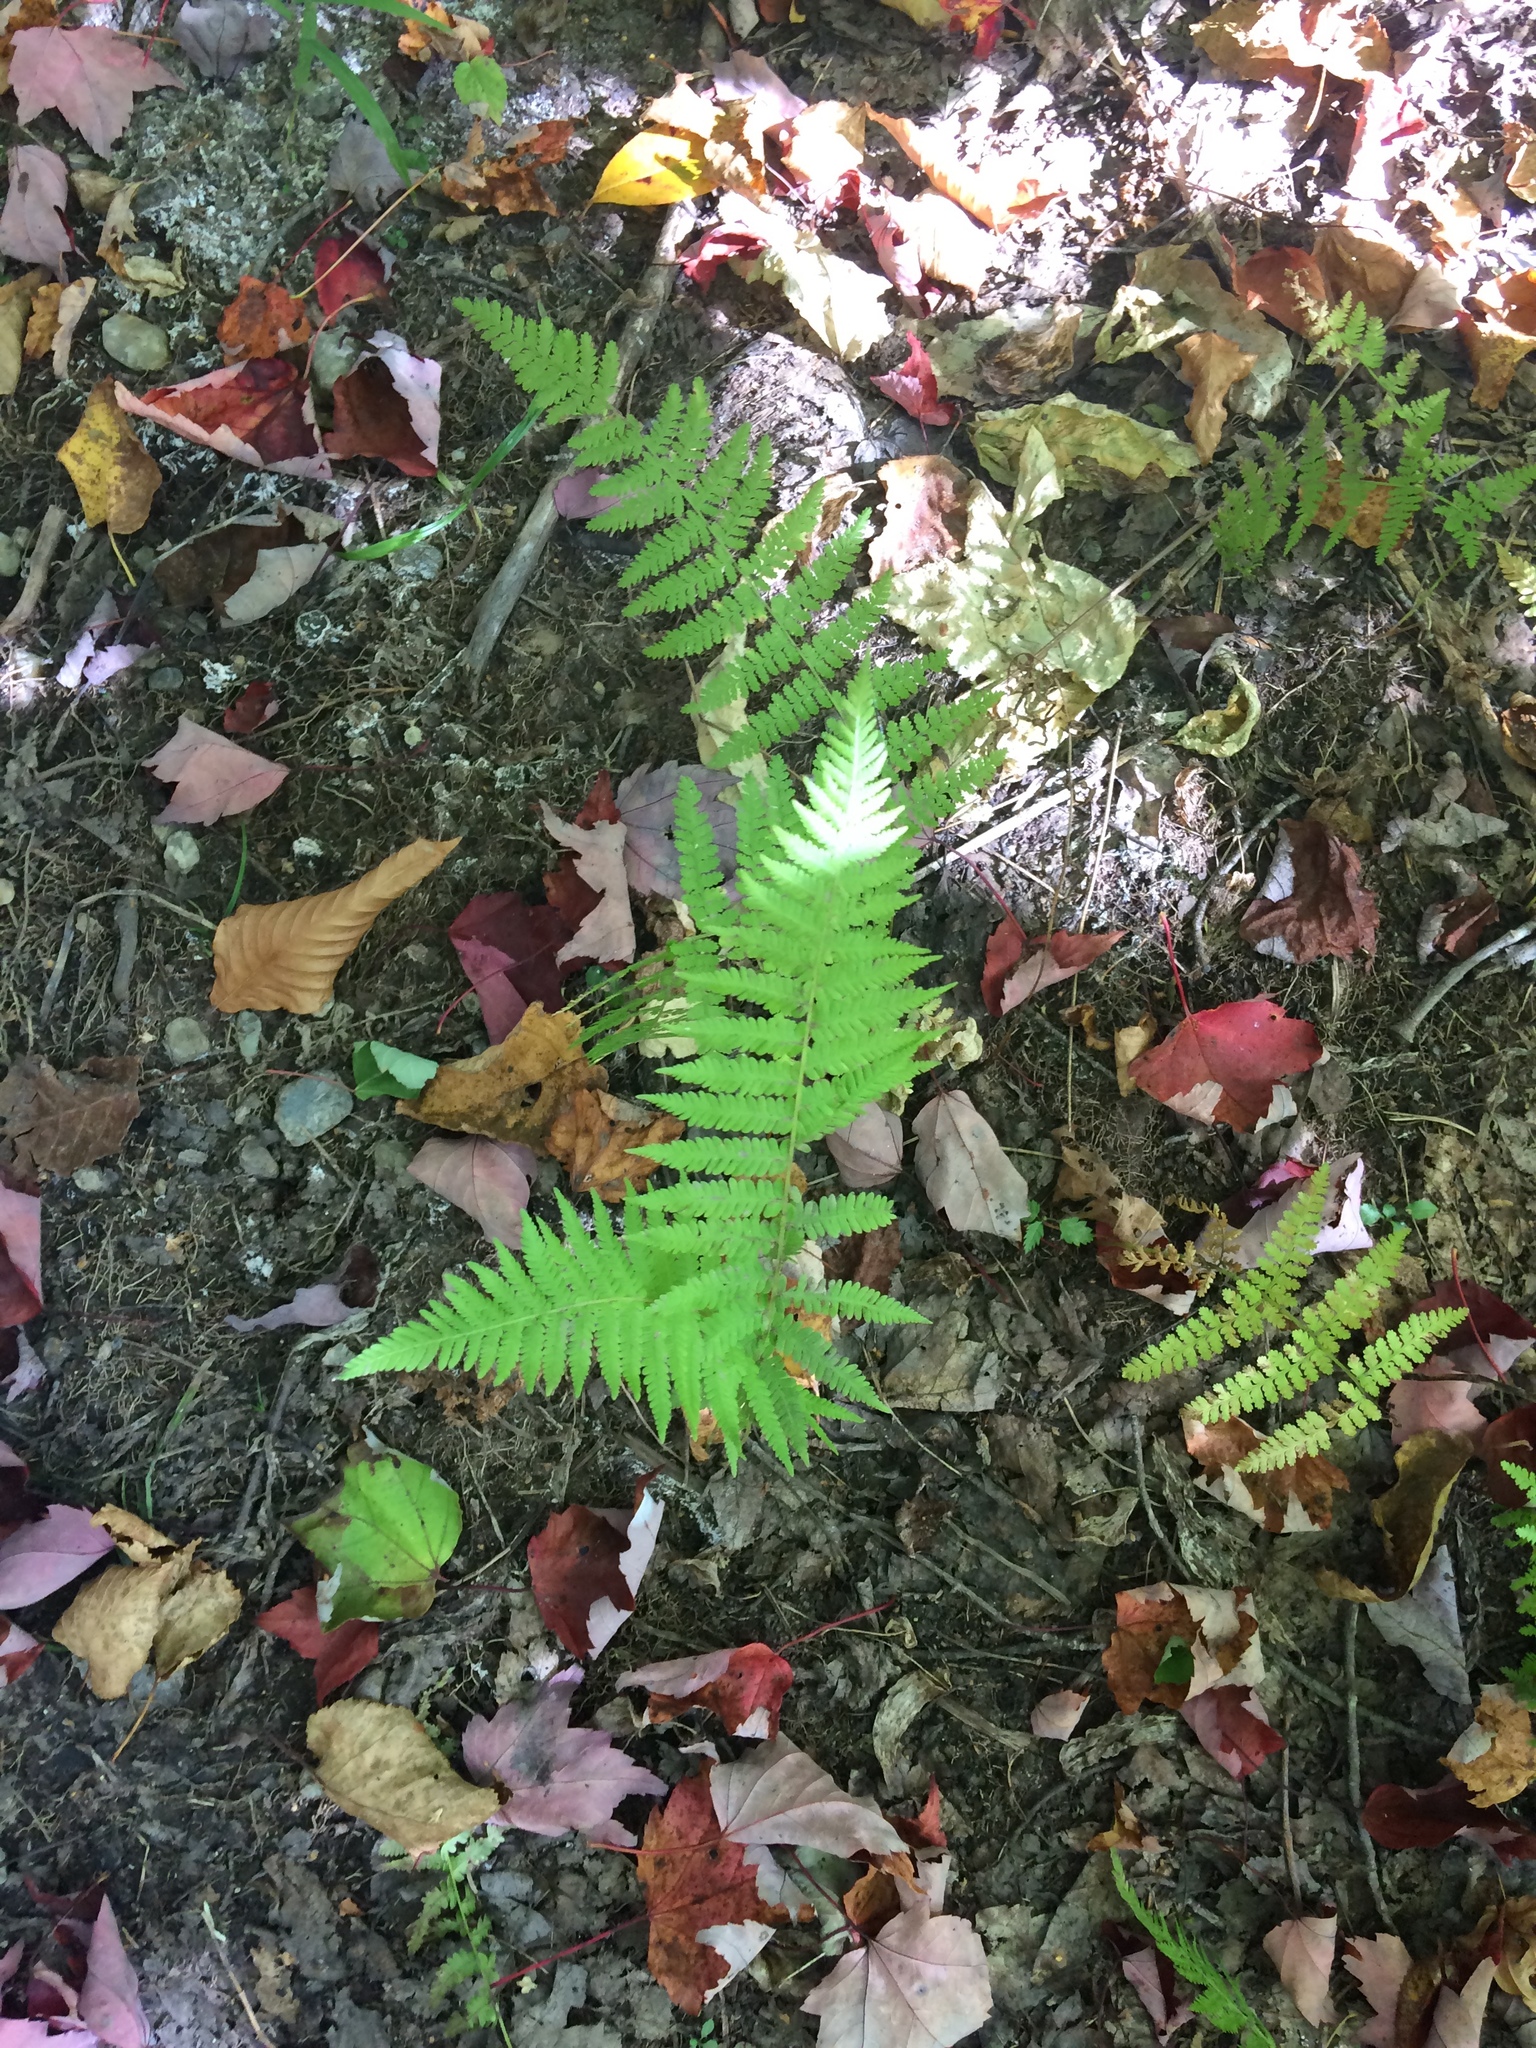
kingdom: Plantae
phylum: Tracheophyta
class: Polypodiopsida
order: Polypodiales
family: Thelypteridaceae
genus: Amauropelta
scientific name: Amauropelta noveboracensis
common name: New york fern
